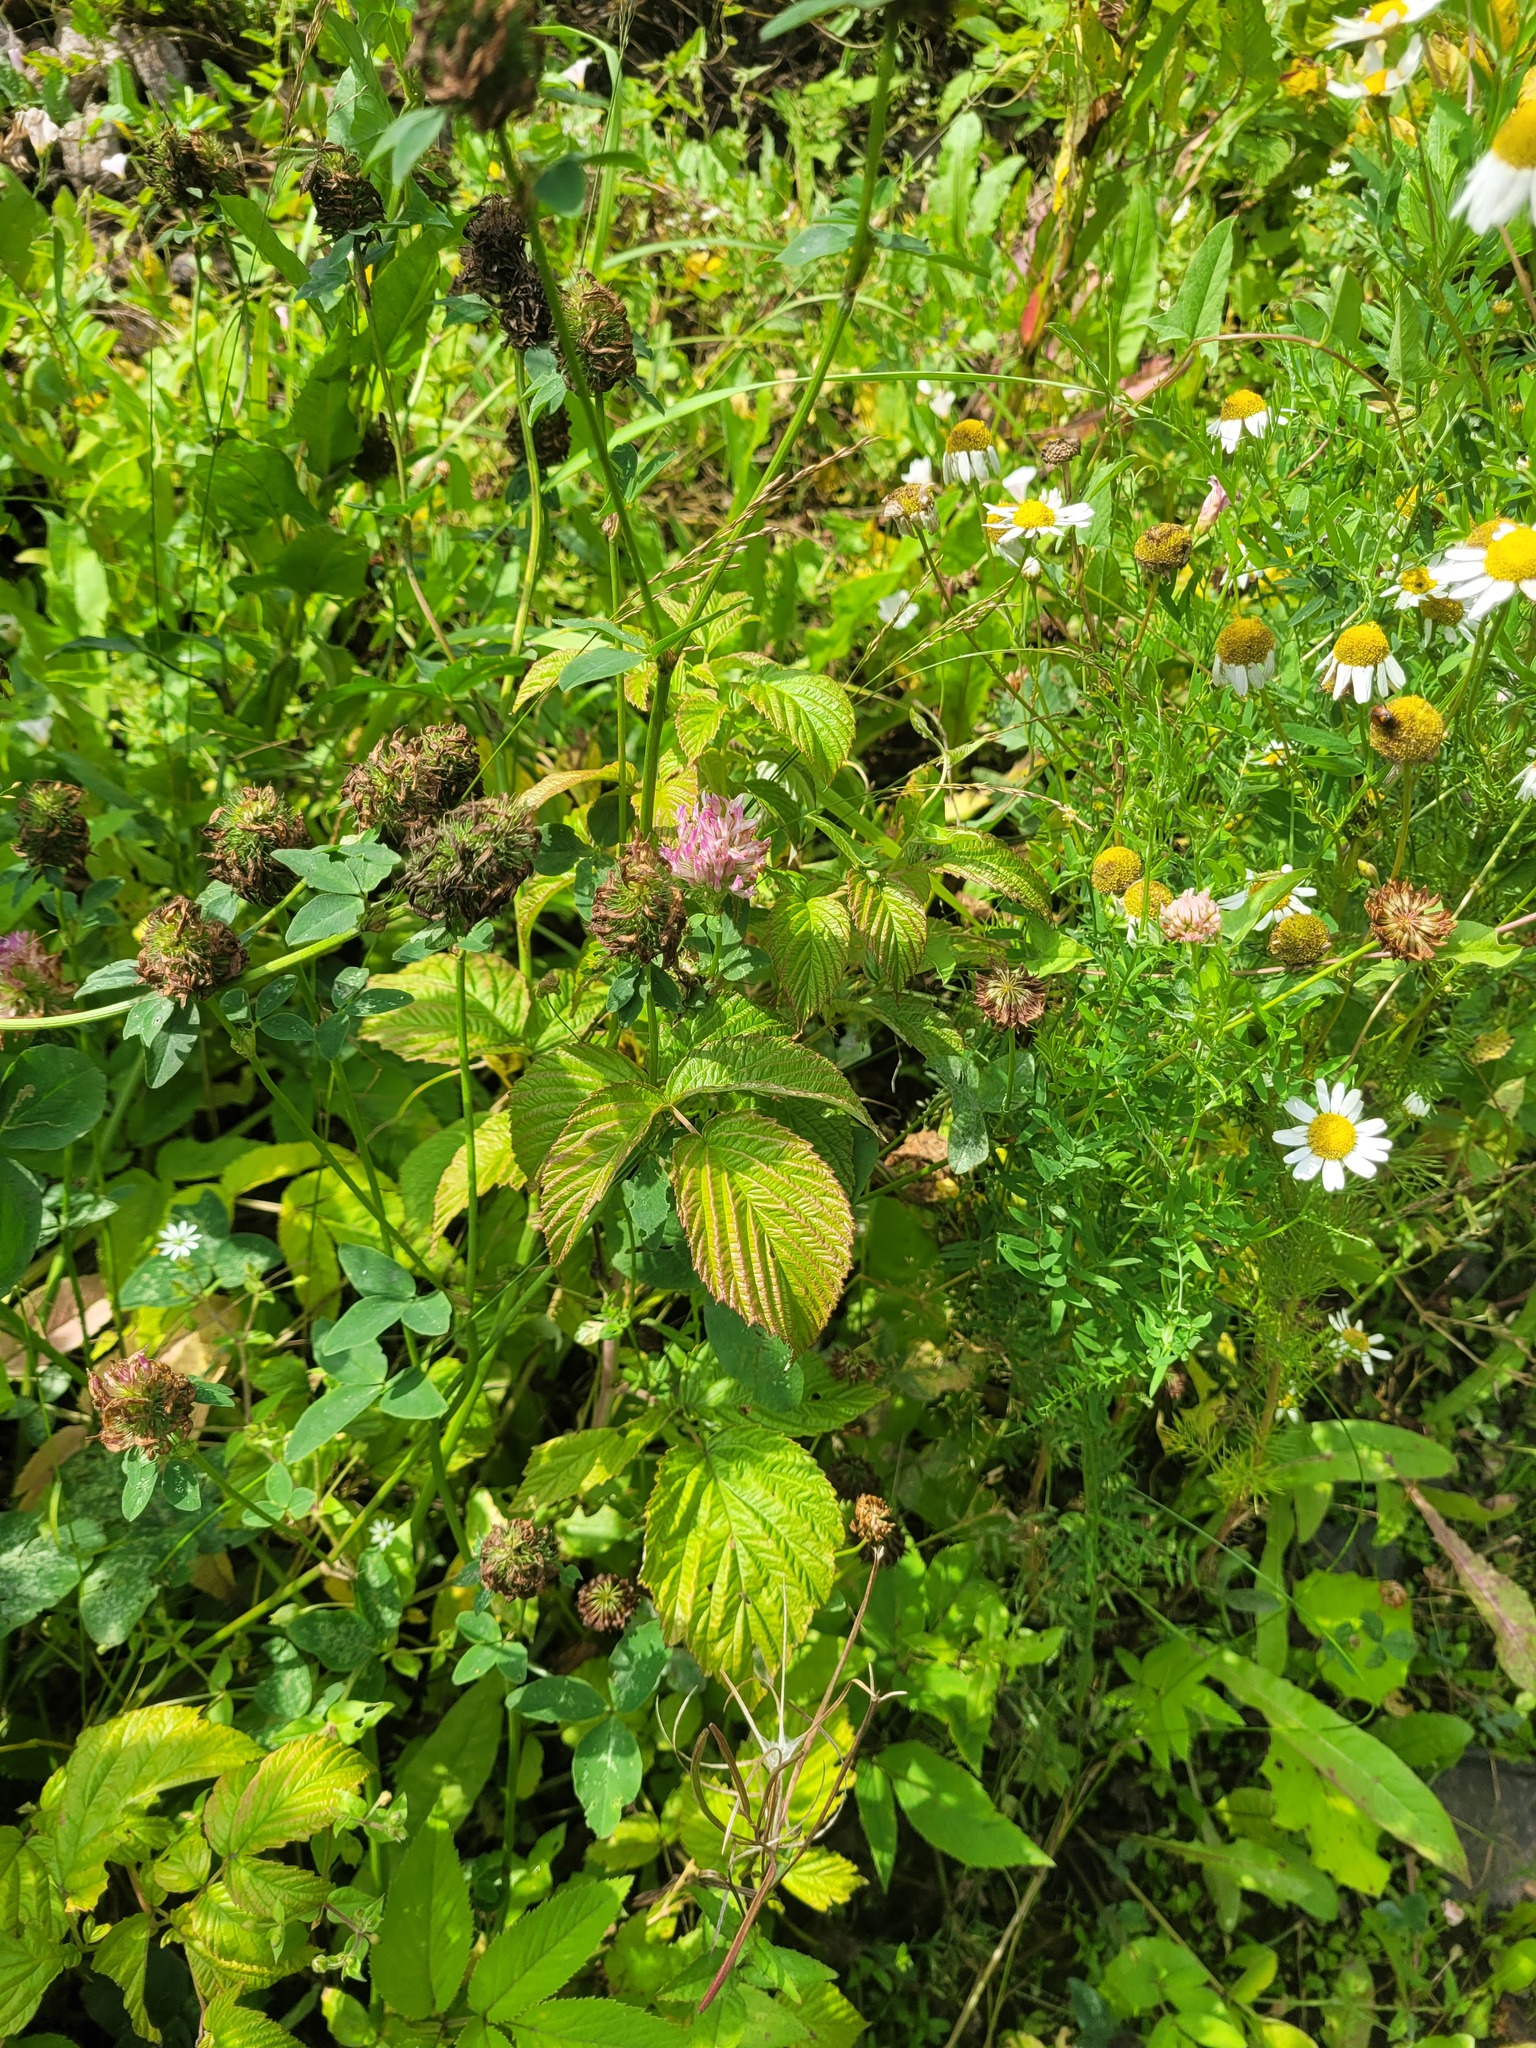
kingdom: Plantae
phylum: Tracheophyta
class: Magnoliopsida
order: Rosales
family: Rosaceae
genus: Rubus
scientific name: Rubus idaeus
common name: Raspberry
